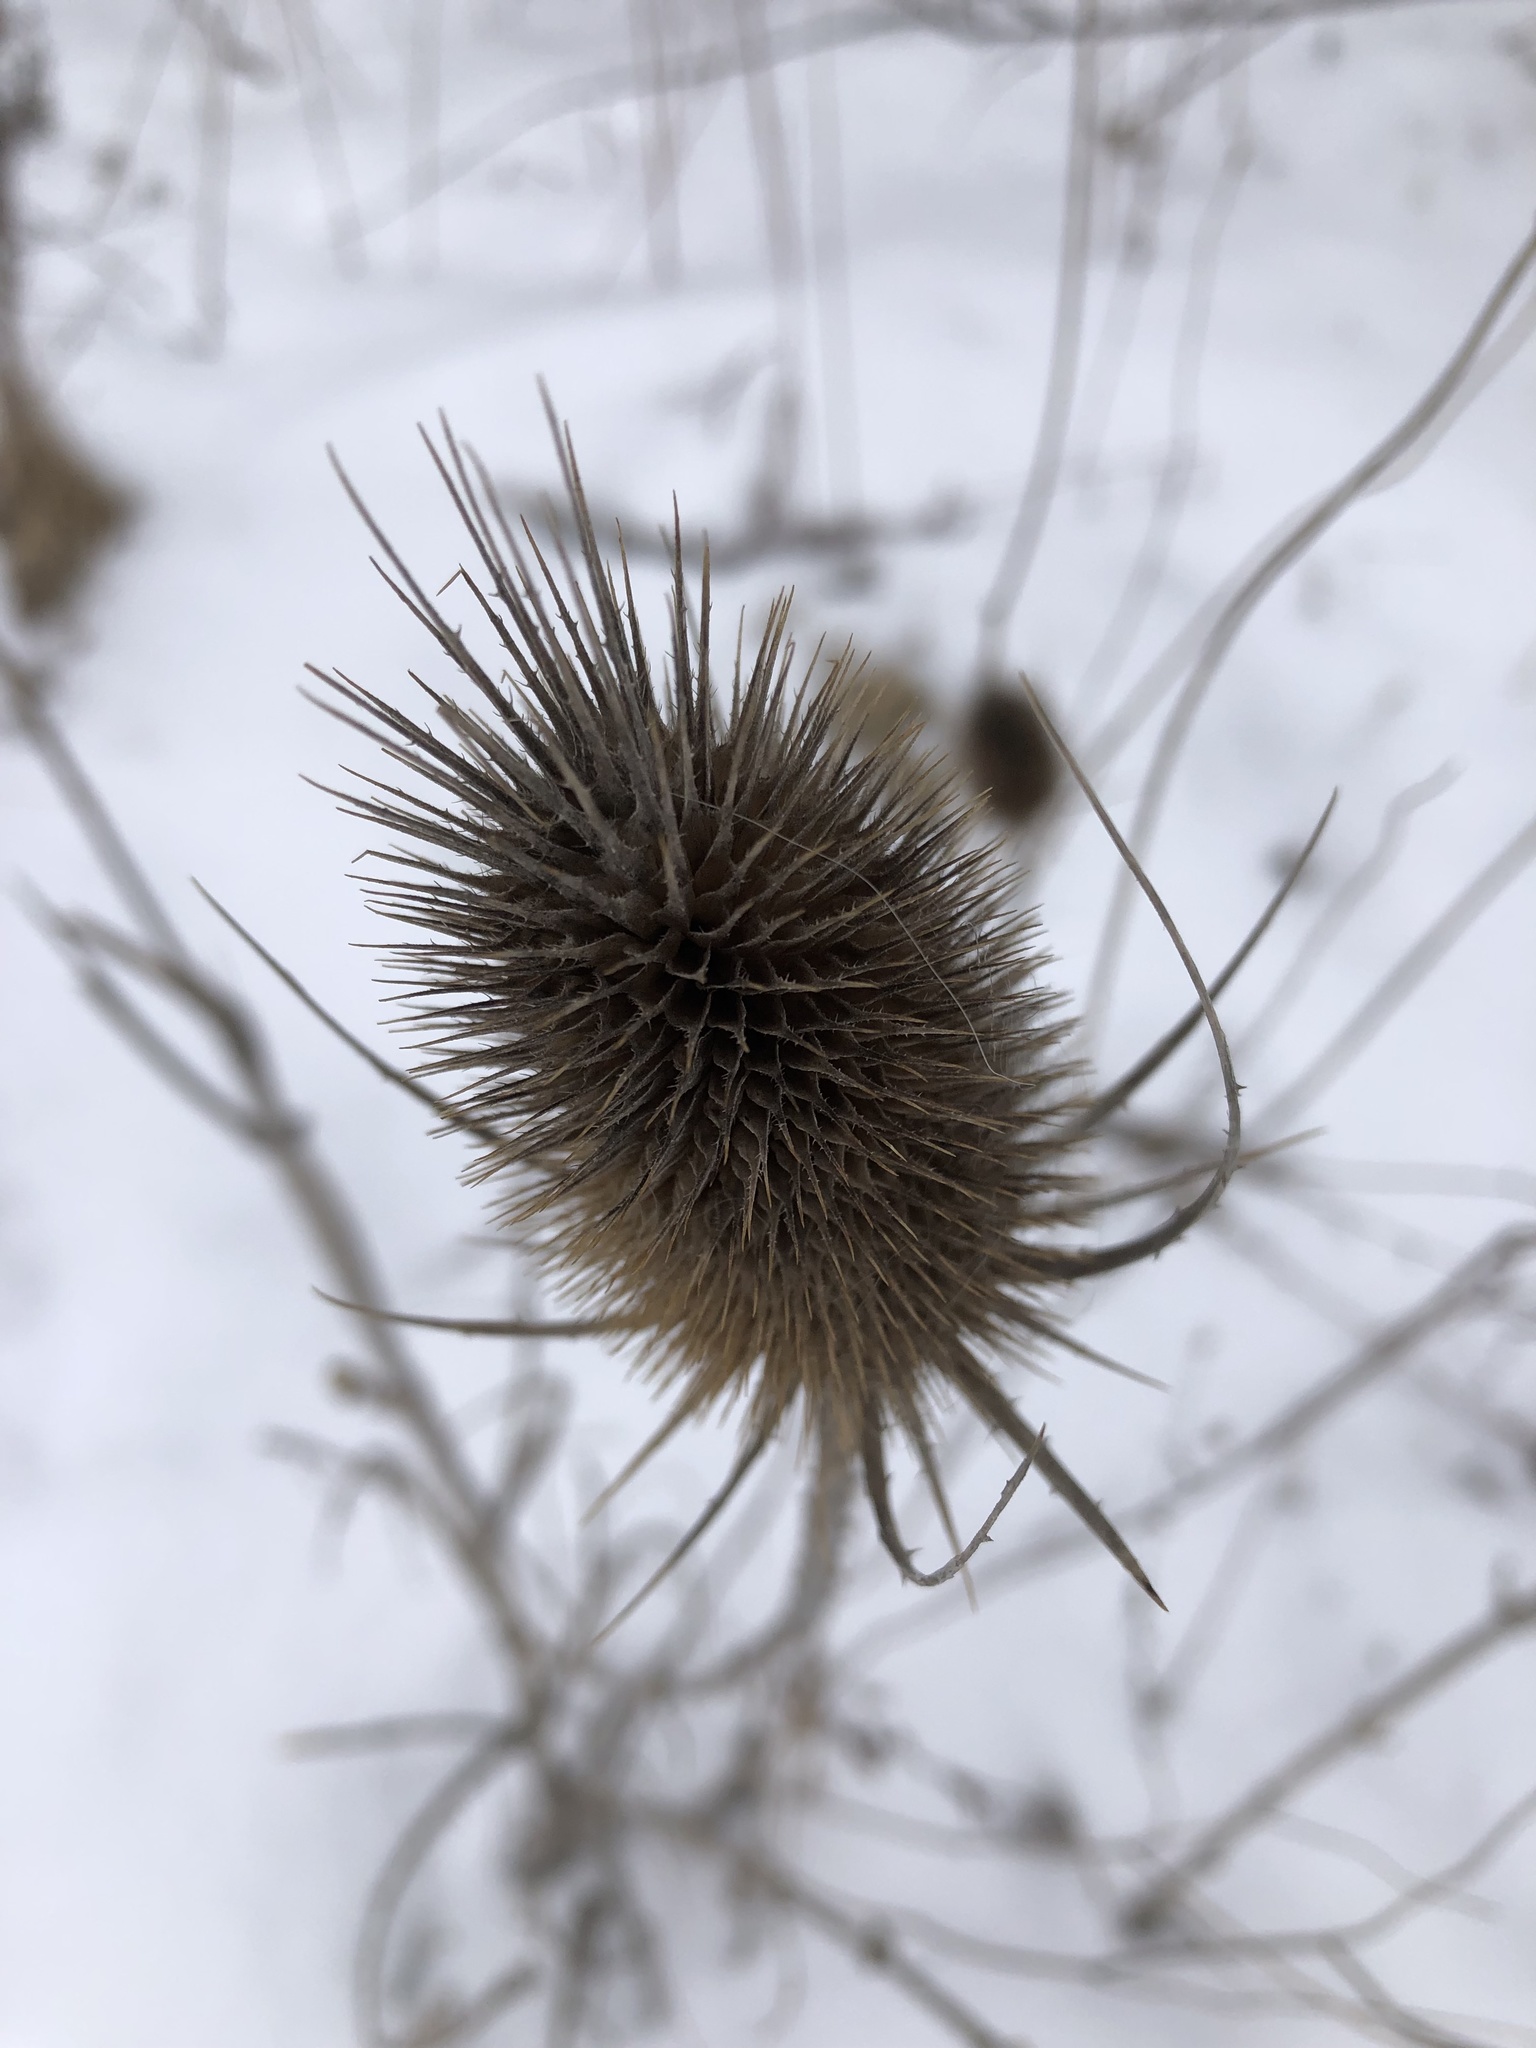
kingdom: Plantae
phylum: Tracheophyta
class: Magnoliopsida
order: Dipsacales
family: Caprifoliaceae
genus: Dipsacus
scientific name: Dipsacus fullonum
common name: Teasel
